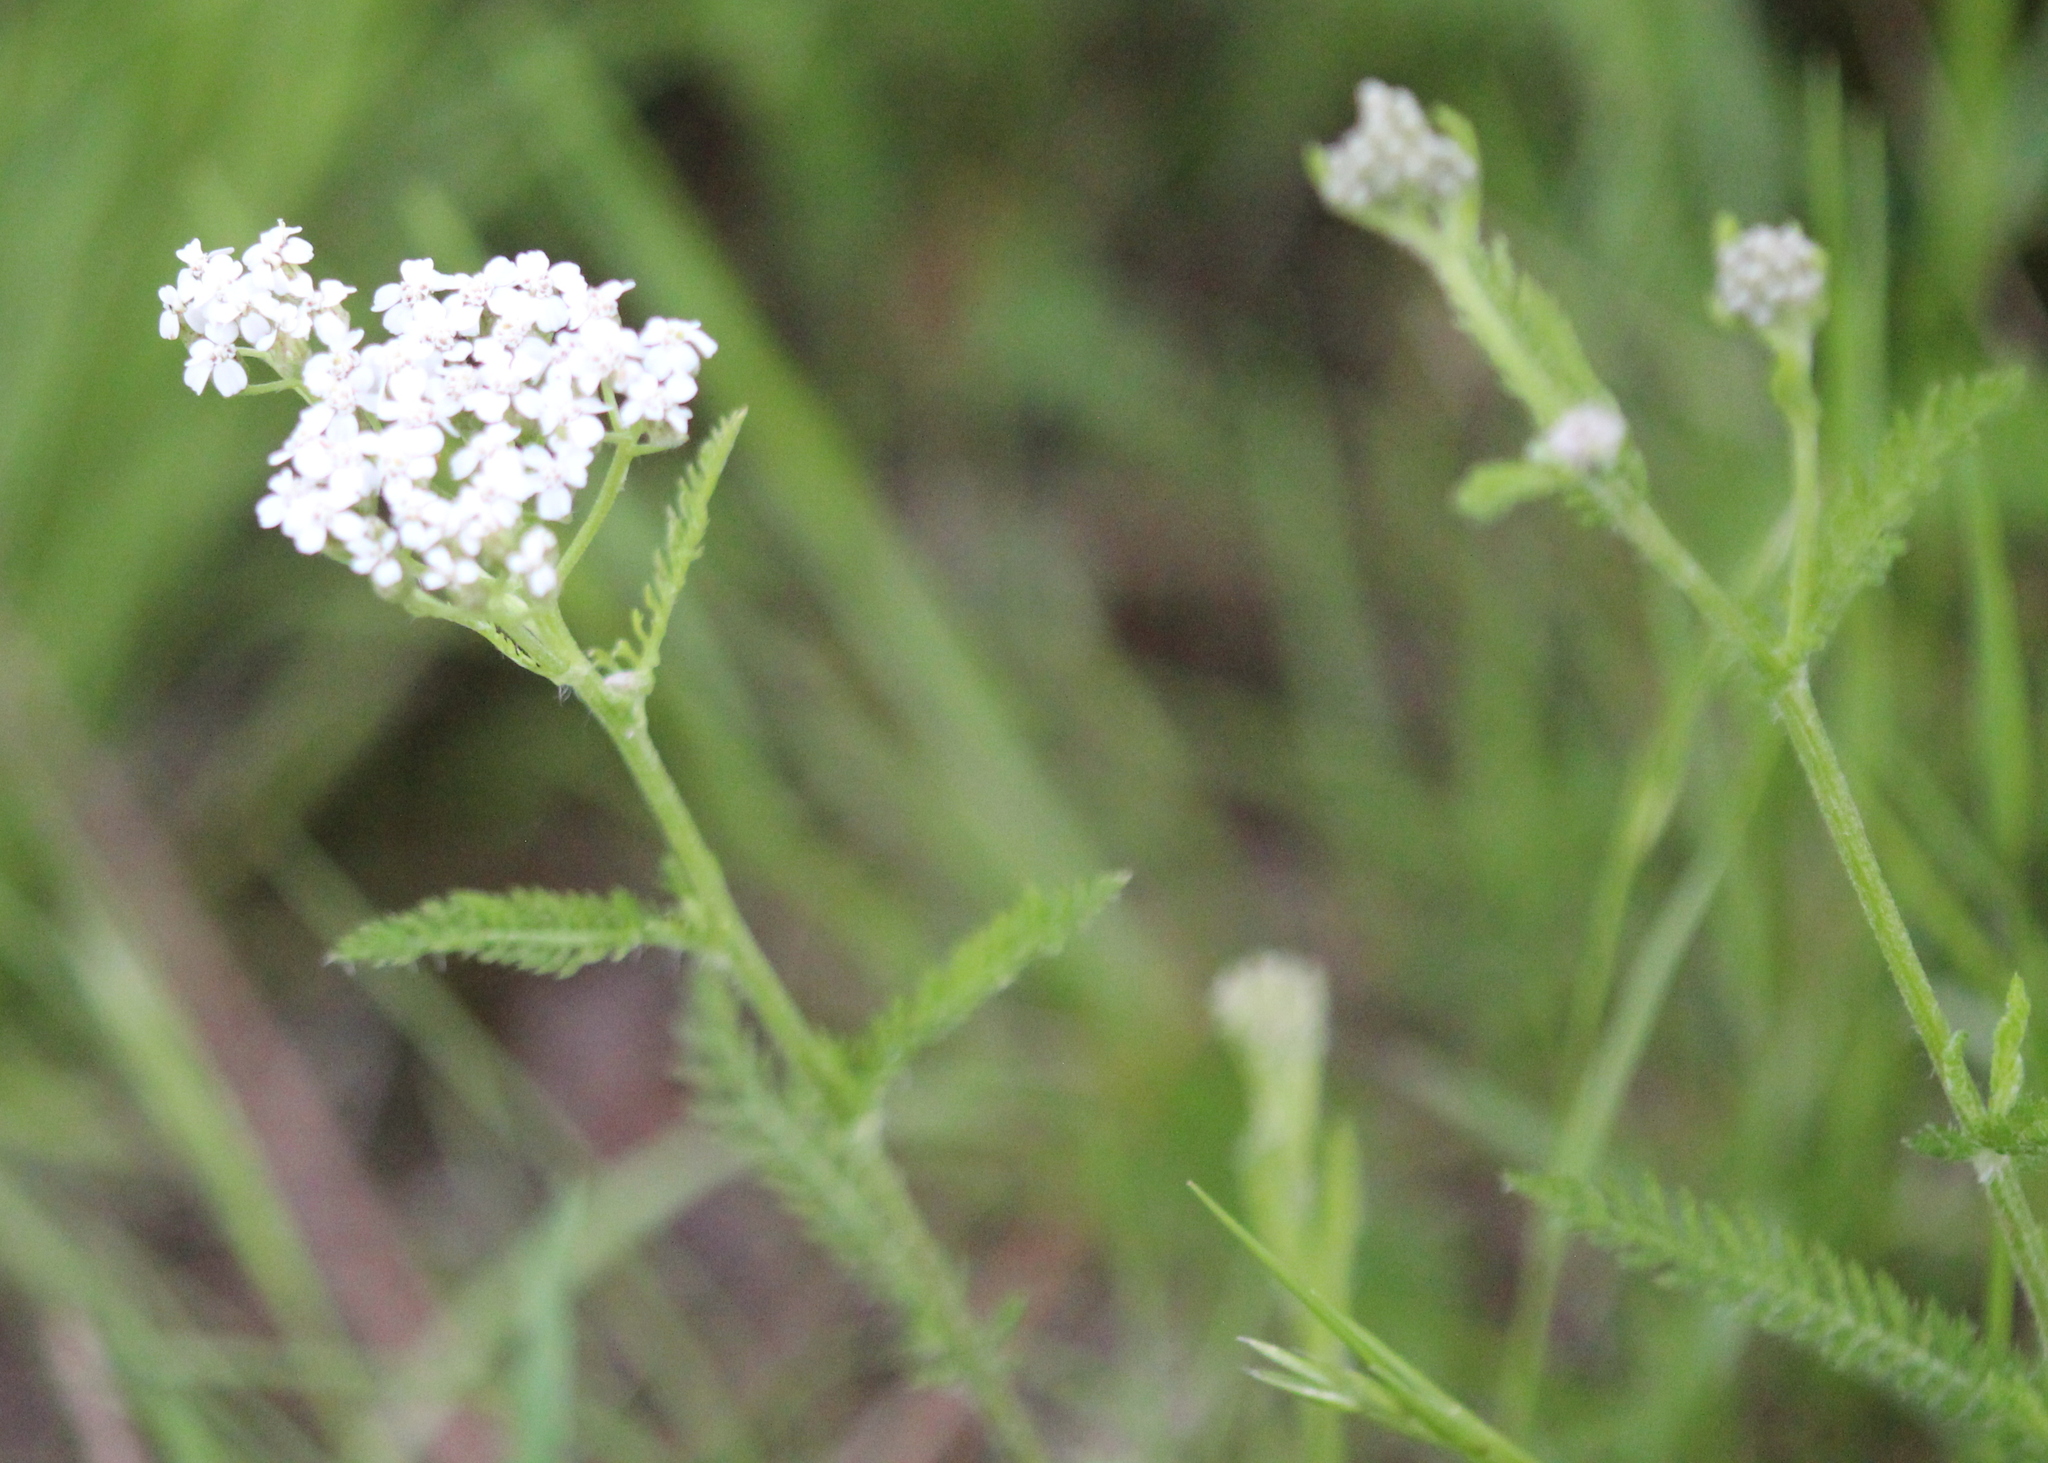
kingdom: Plantae
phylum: Tracheophyta
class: Magnoliopsida
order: Asterales
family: Asteraceae
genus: Achillea
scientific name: Achillea millefolium
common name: Yarrow
